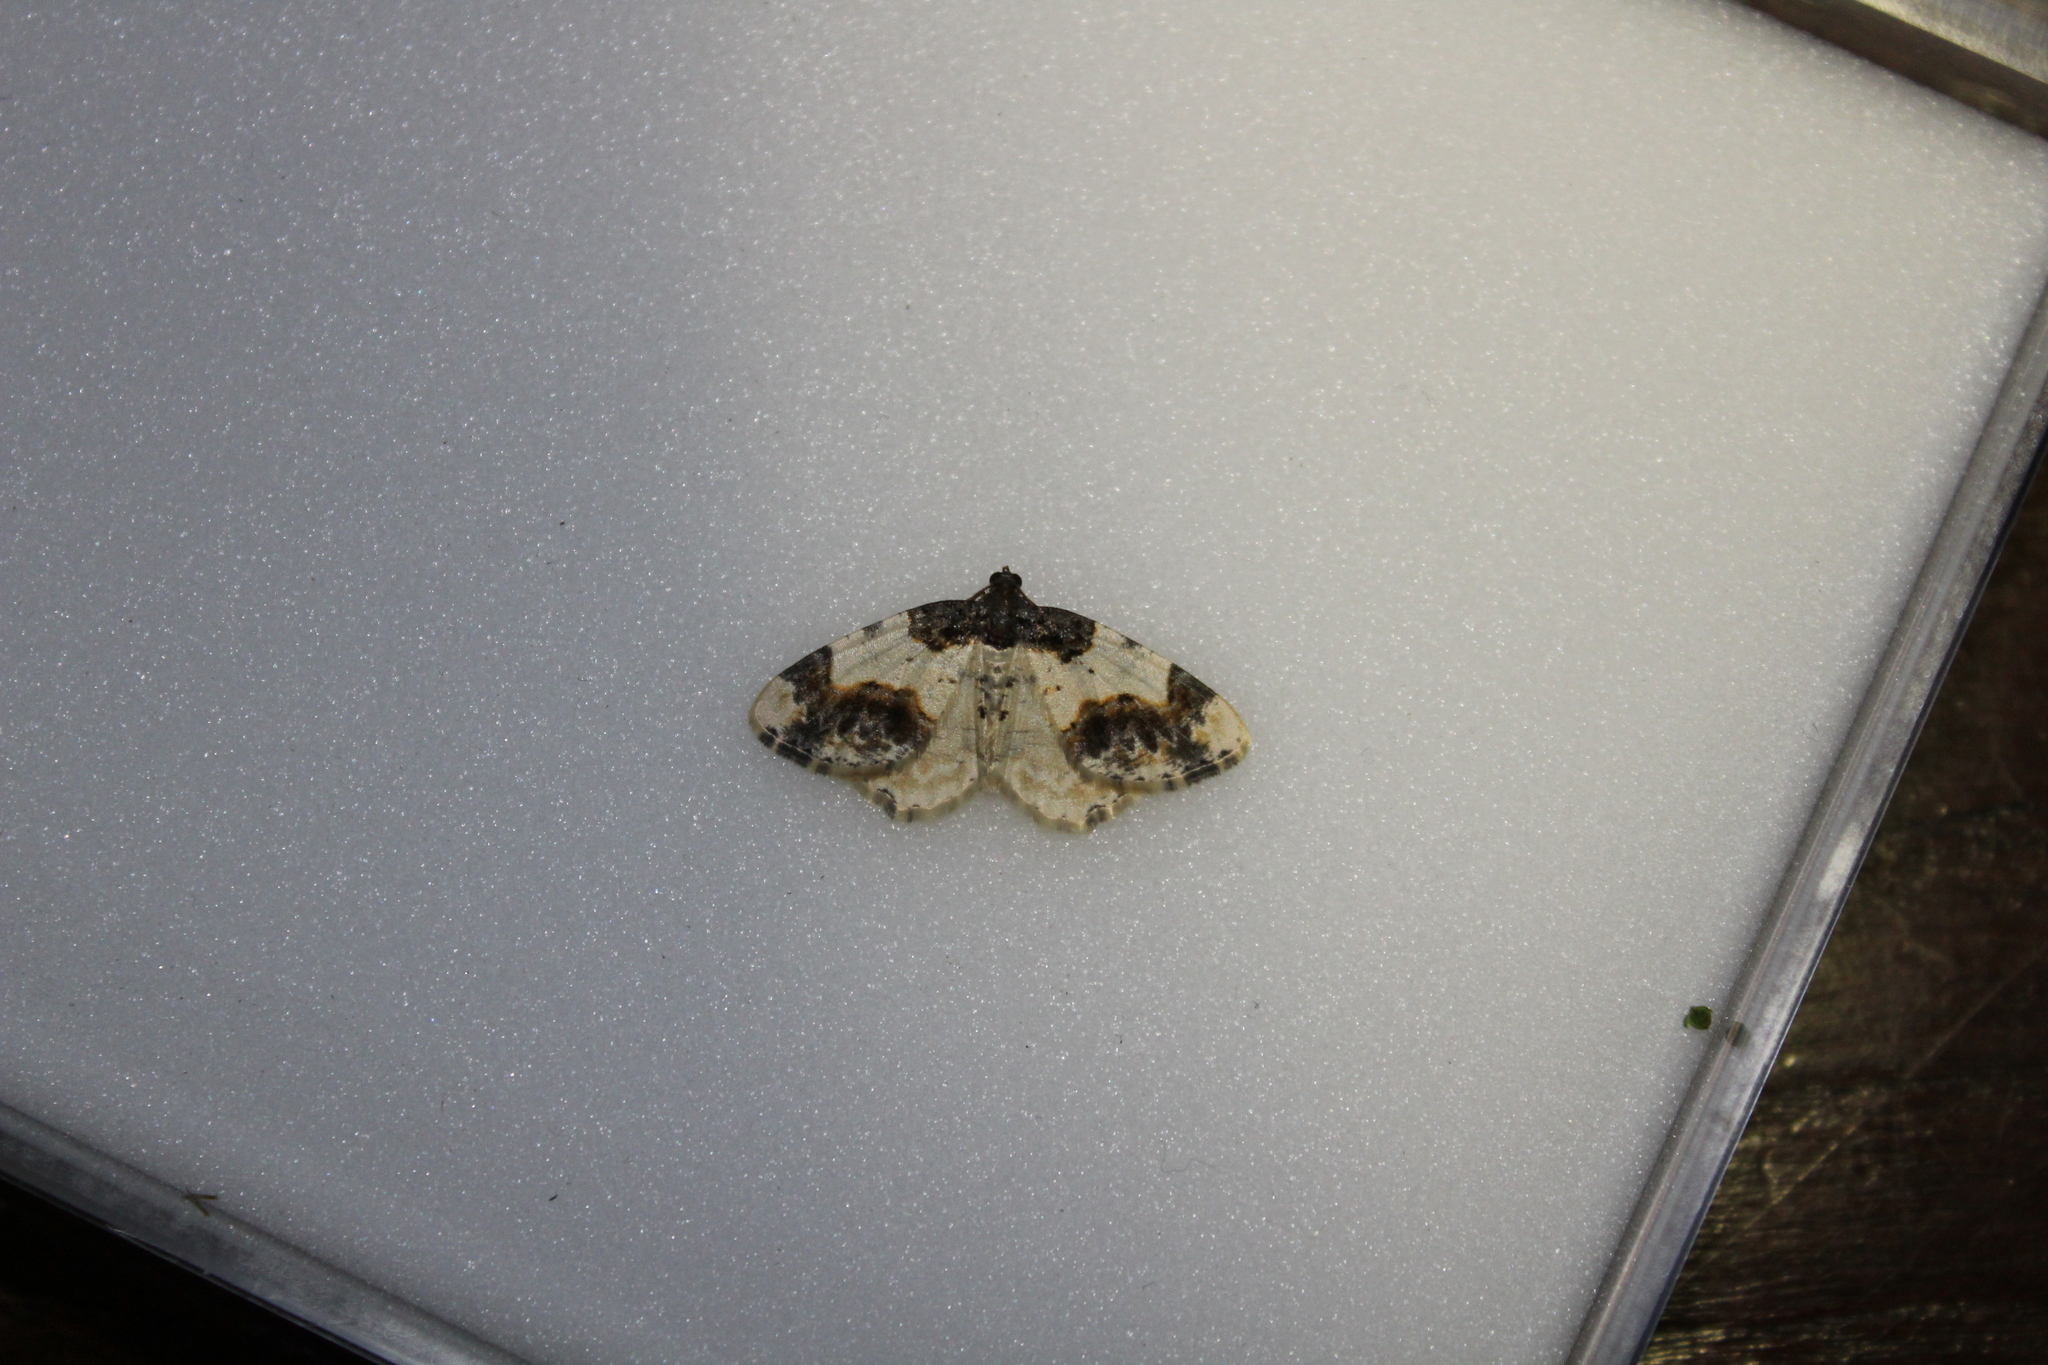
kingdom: Animalia
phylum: Arthropoda
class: Insecta
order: Lepidoptera
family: Geometridae
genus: Ligdia
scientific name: Ligdia adustata
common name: Scorched carpet
